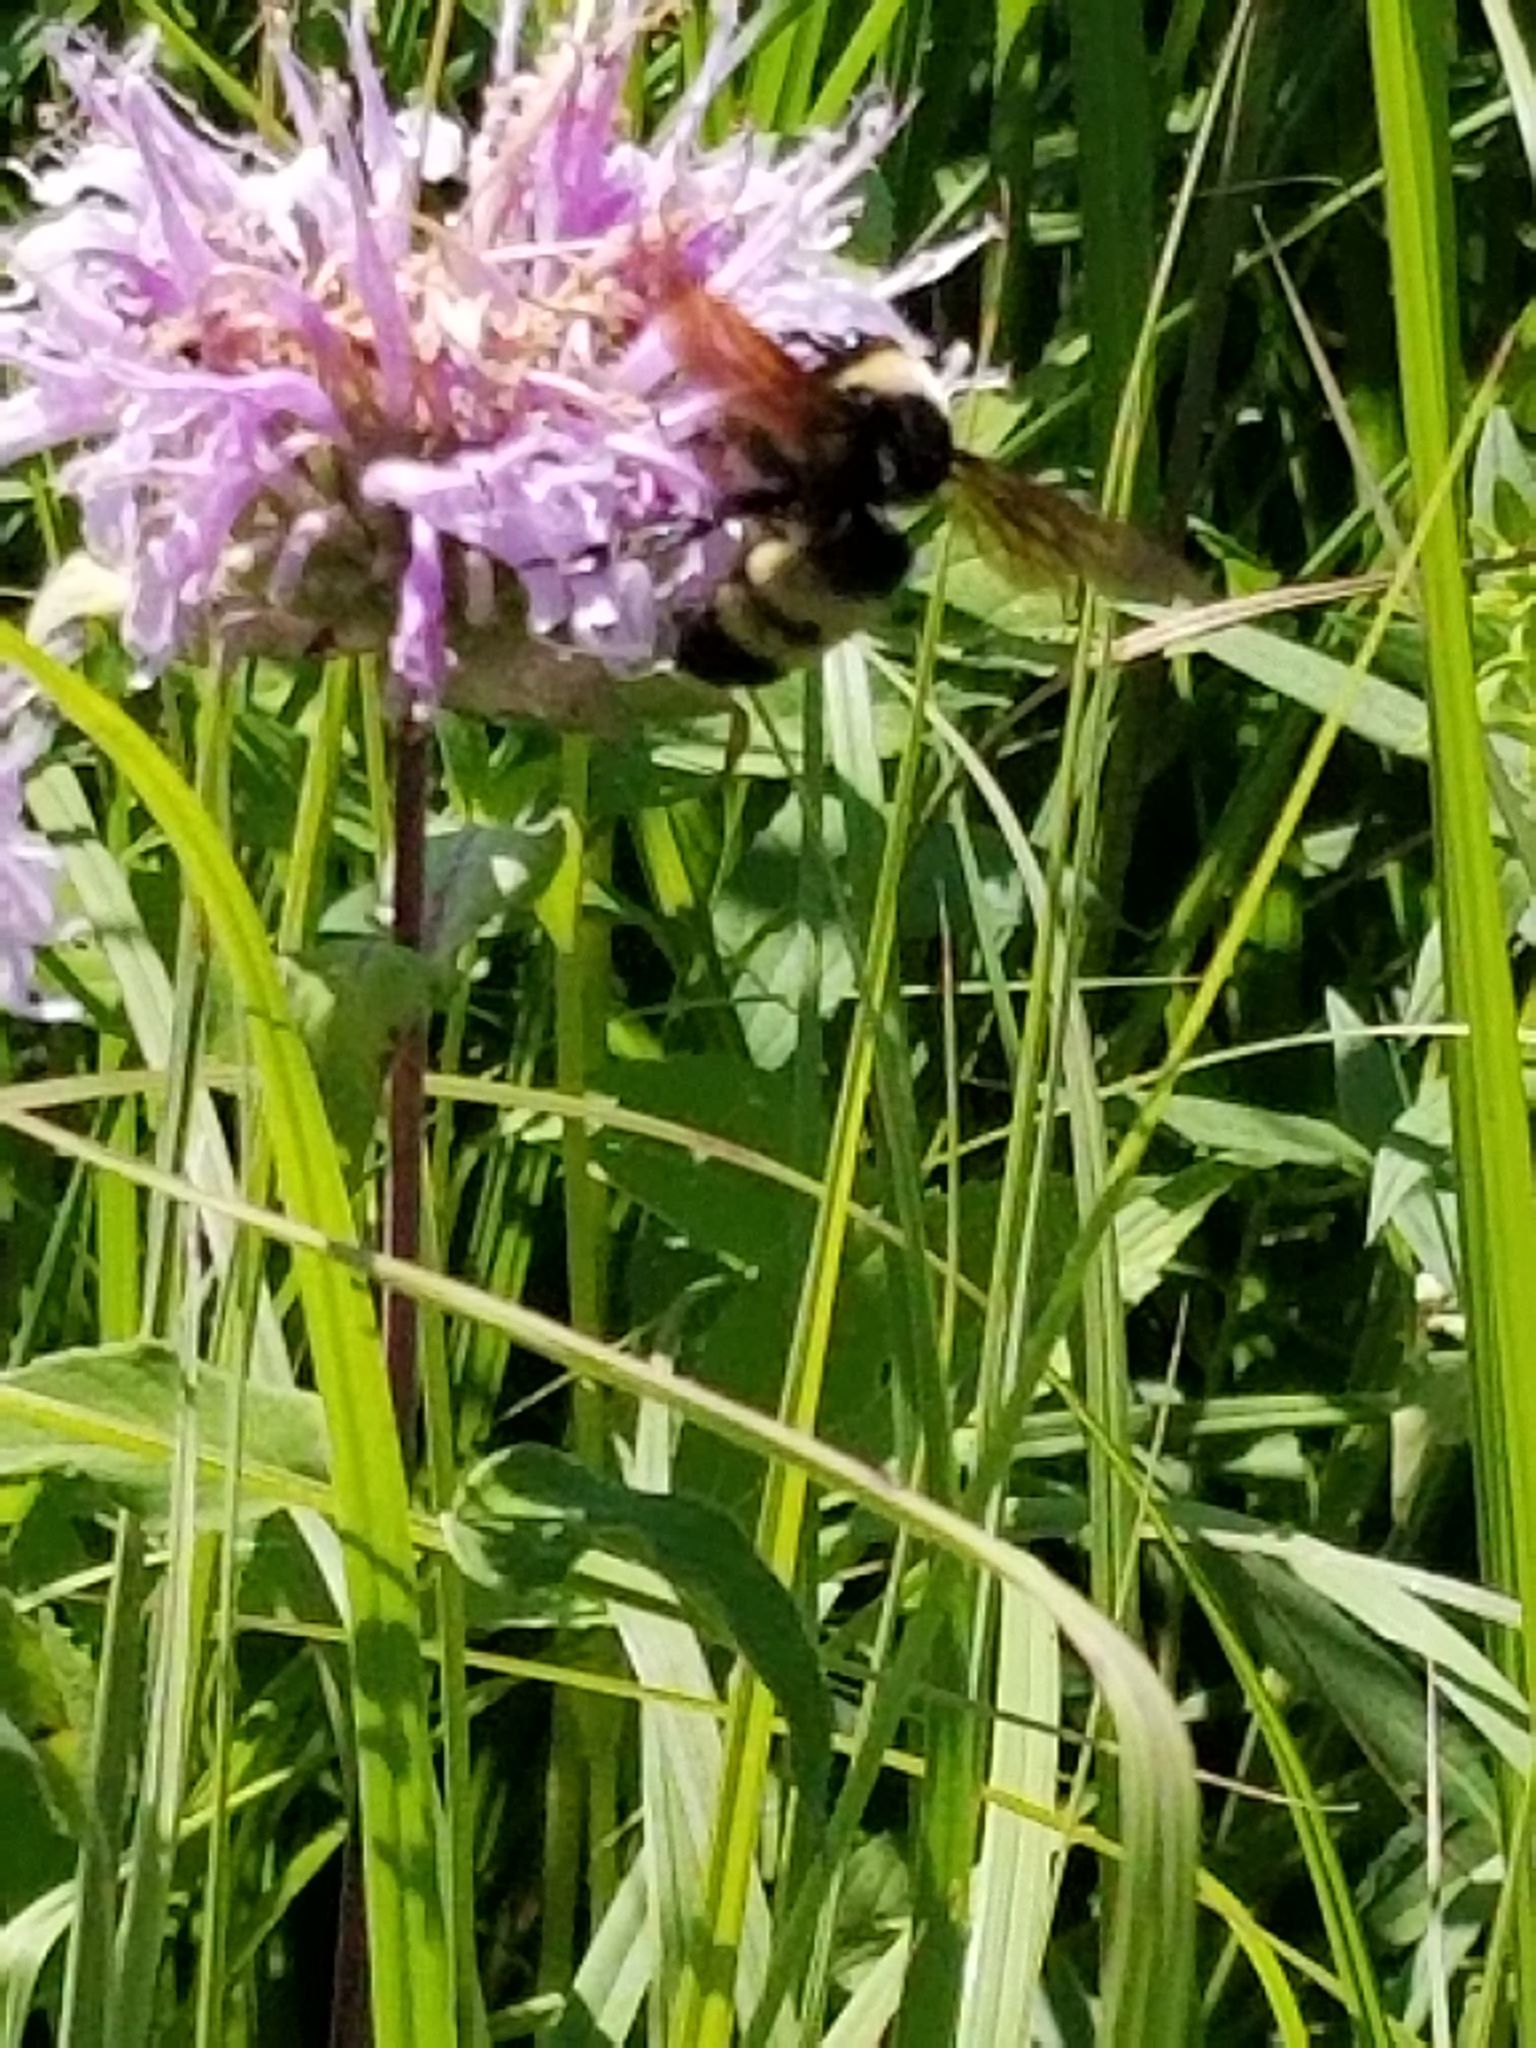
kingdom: Animalia
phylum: Arthropoda
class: Insecta
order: Hymenoptera
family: Apidae
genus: Bombus
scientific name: Bombus auricomus
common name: Black and gold bumble bee
